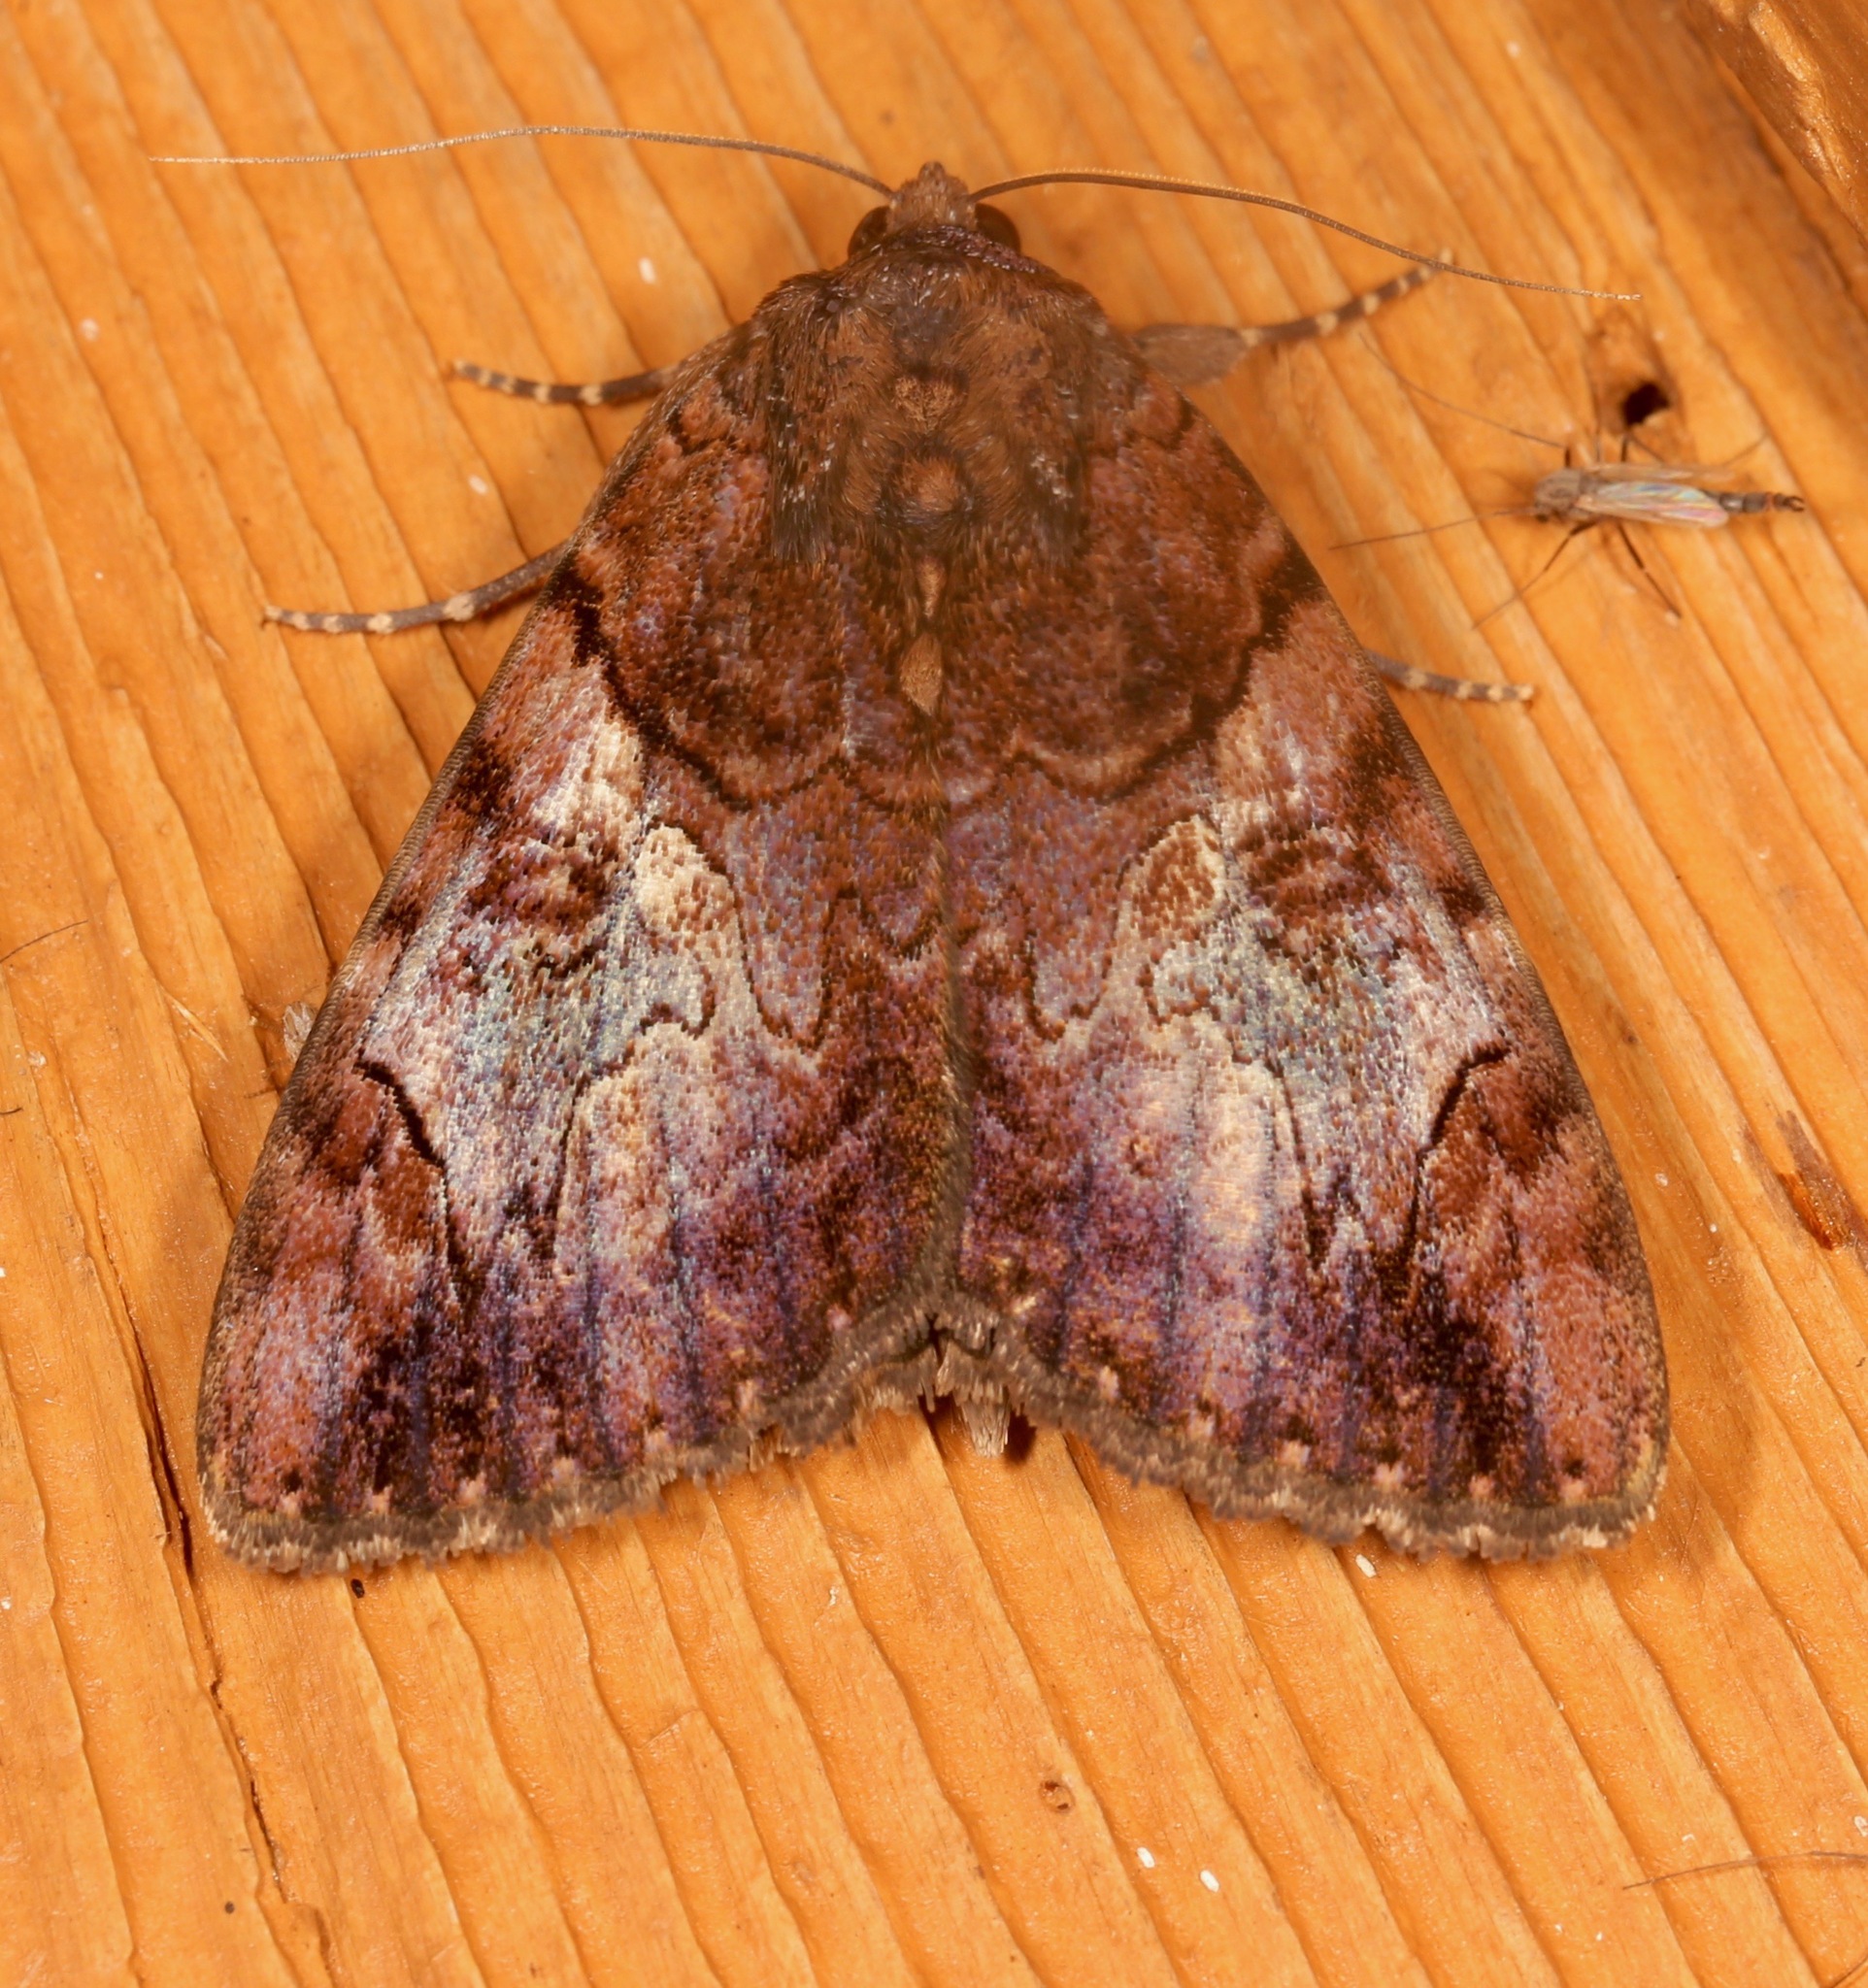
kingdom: Animalia
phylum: Arthropoda
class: Insecta
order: Lepidoptera
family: Erebidae
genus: Catocala
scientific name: Catocala muliercula
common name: The little wife underwing
